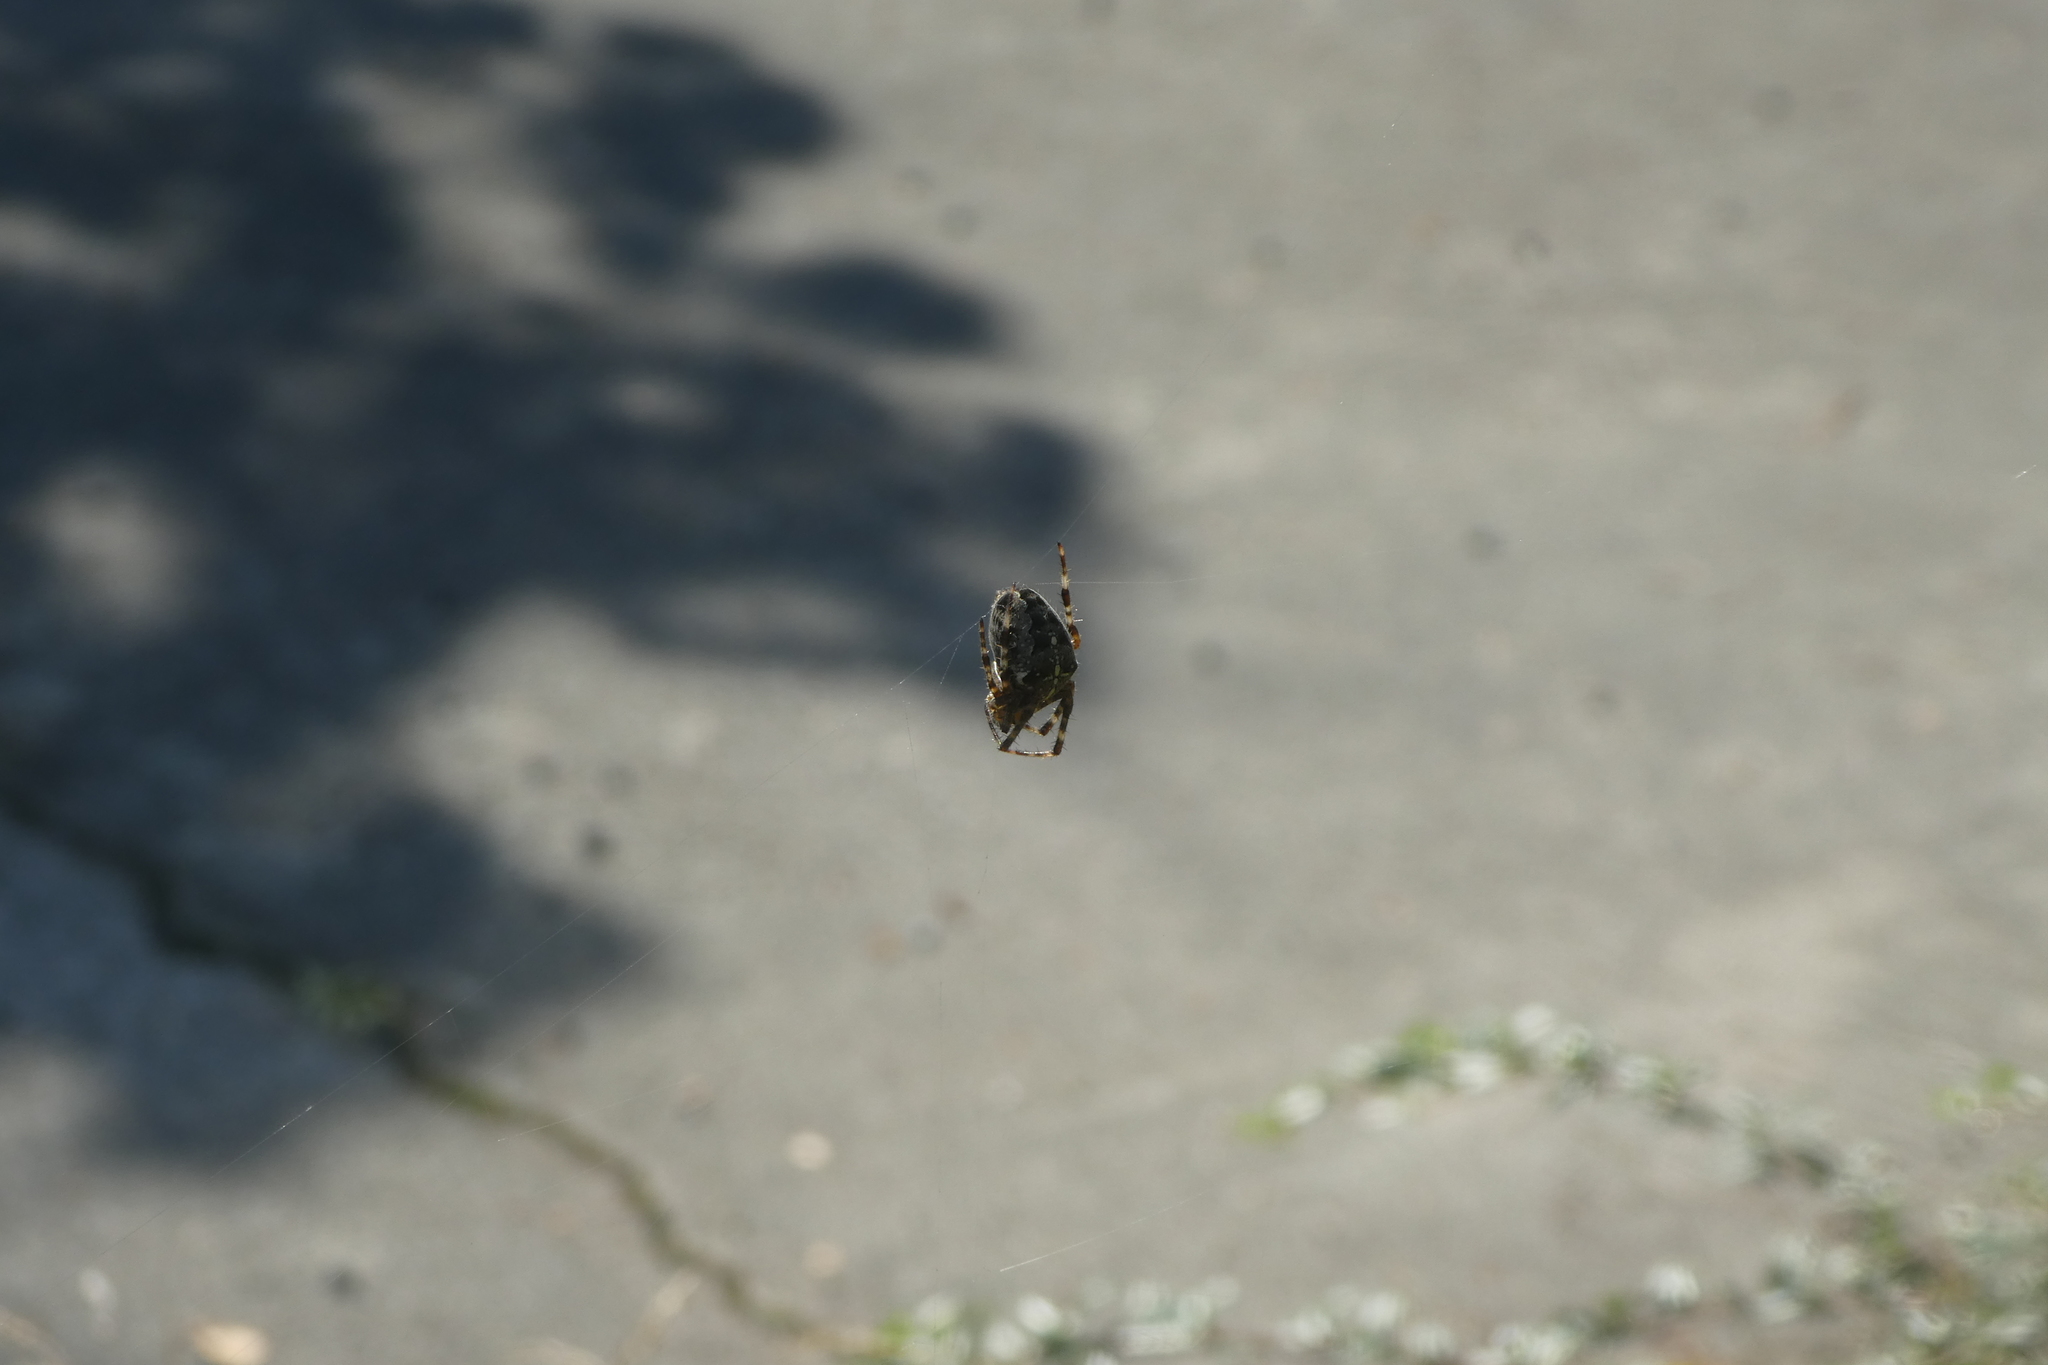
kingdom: Animalia
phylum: Arthropoda
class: Arachnida
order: Araneae
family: Araneidae
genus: Araneus
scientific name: Araneus diadematus
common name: Cross orbweaver
